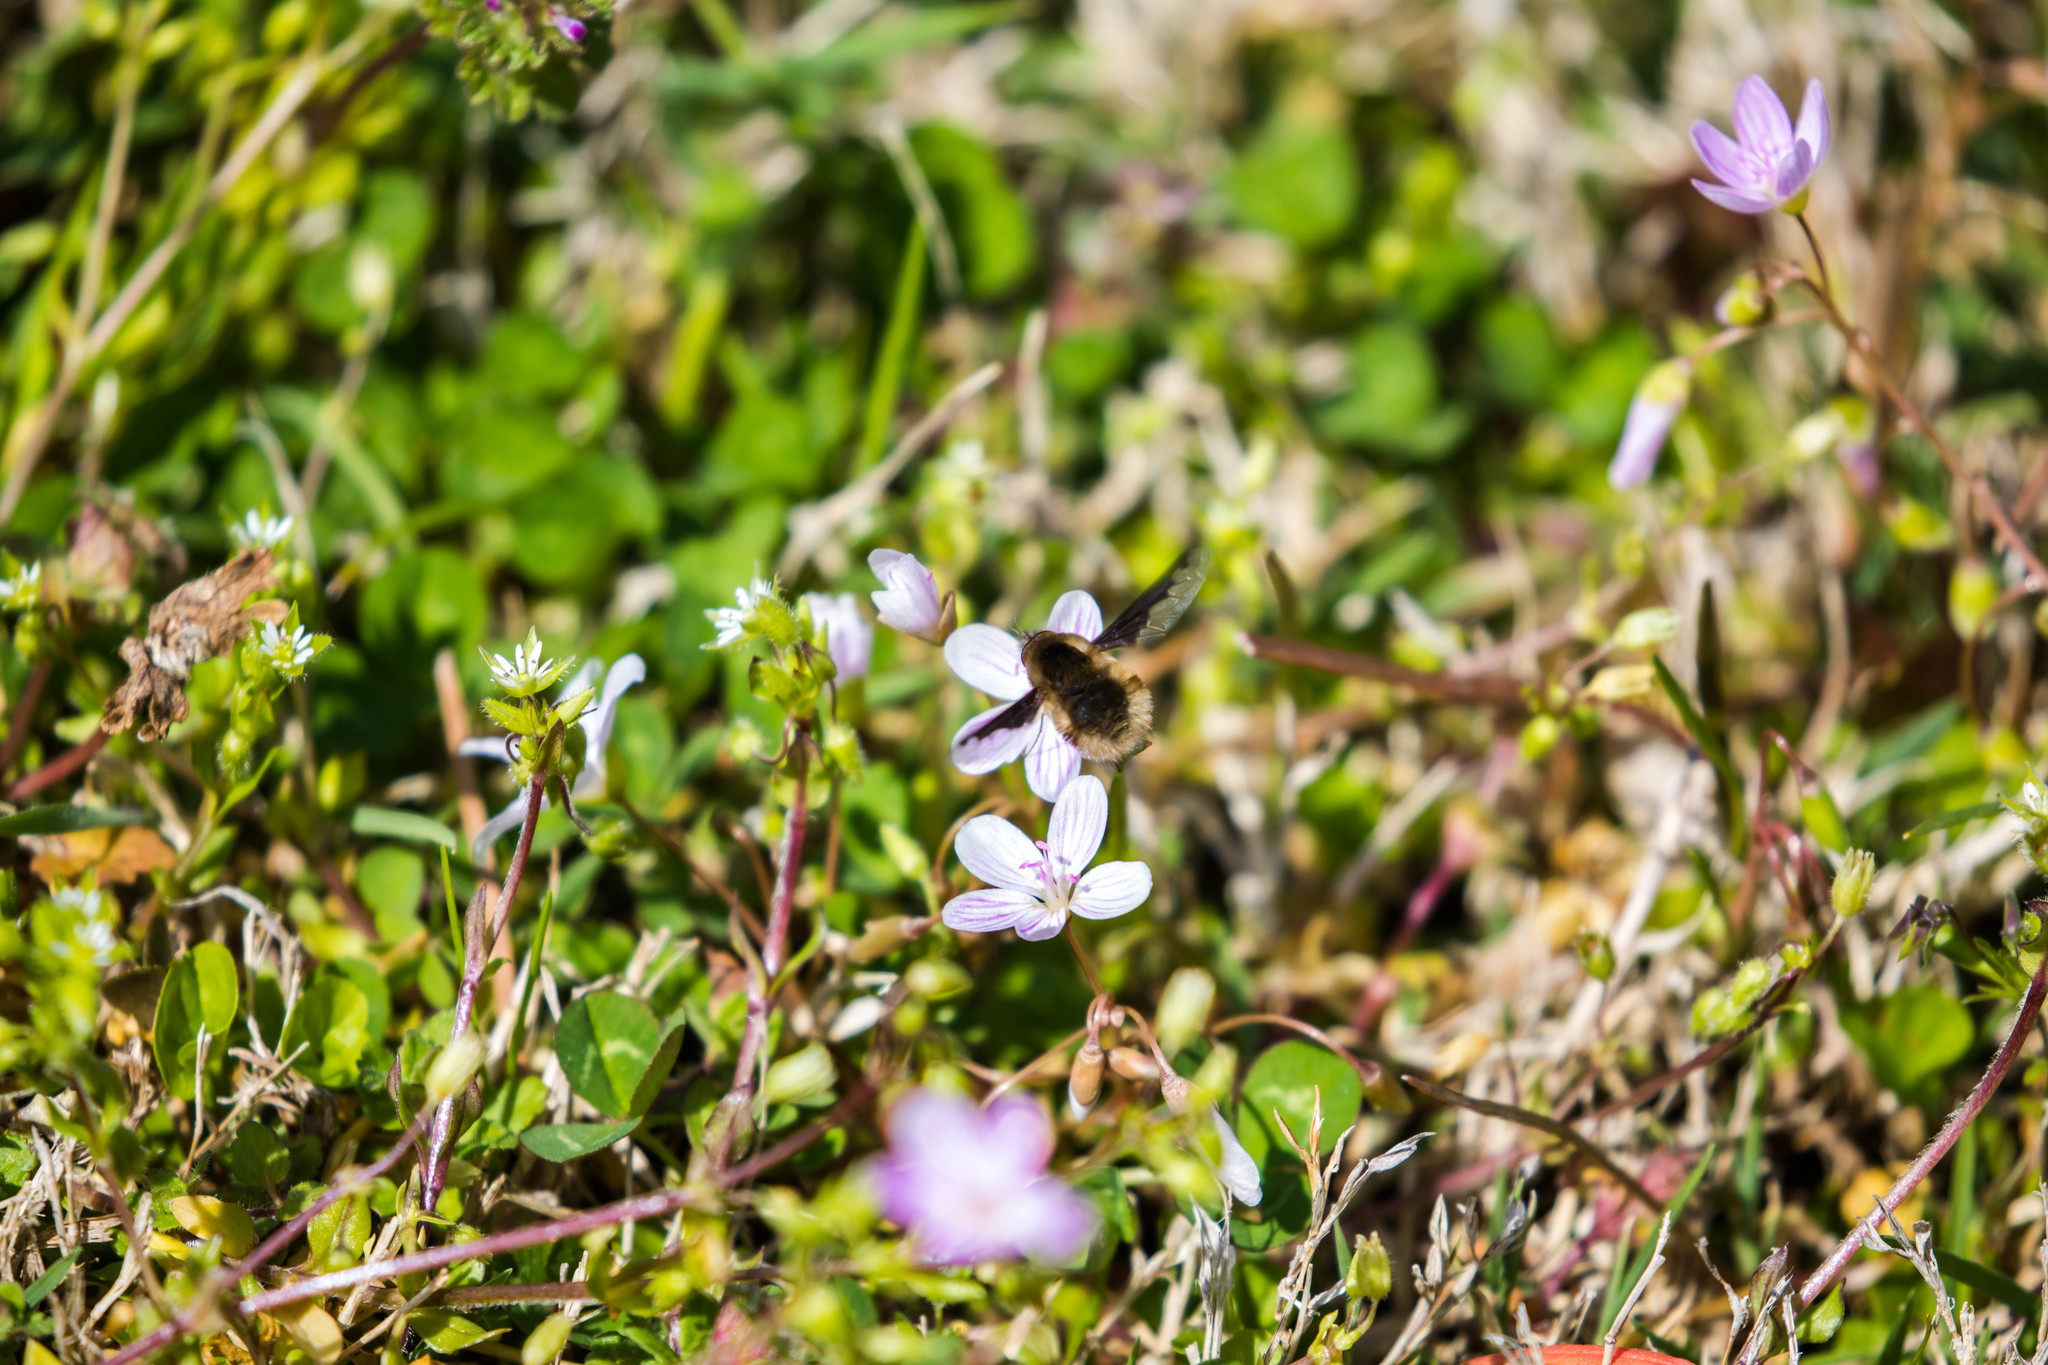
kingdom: Animalia
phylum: Arthropoda
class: Insecta
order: Diptera
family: Bombyliidae
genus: Bombylius
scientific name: Bombylius major
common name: Bee fly
